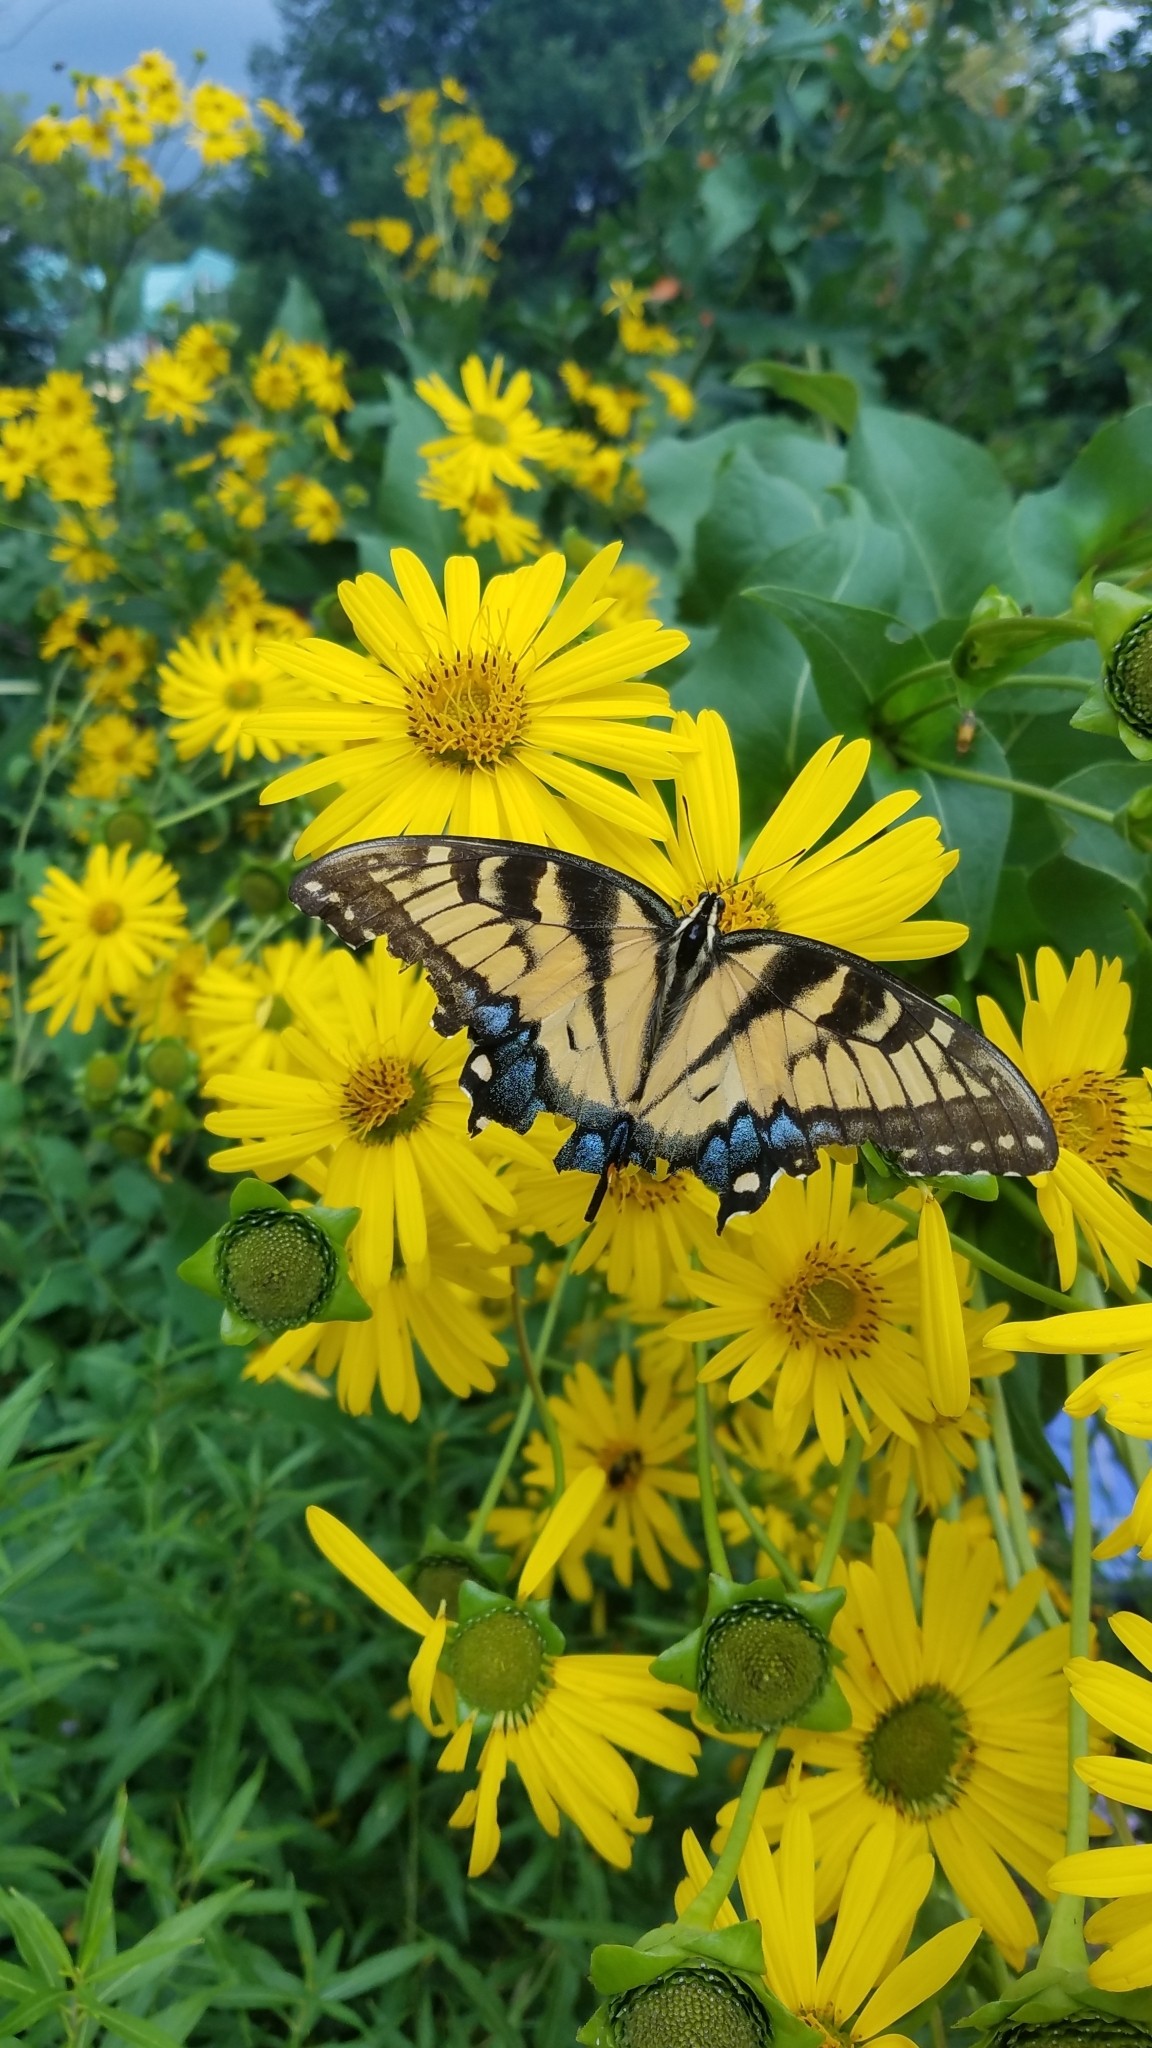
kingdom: Animalia
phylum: Arthropoda
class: Insecta
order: Lepidoptera
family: Papilionidae
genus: Papilio
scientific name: Papilio glaucus
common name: Tiger swallowtail
